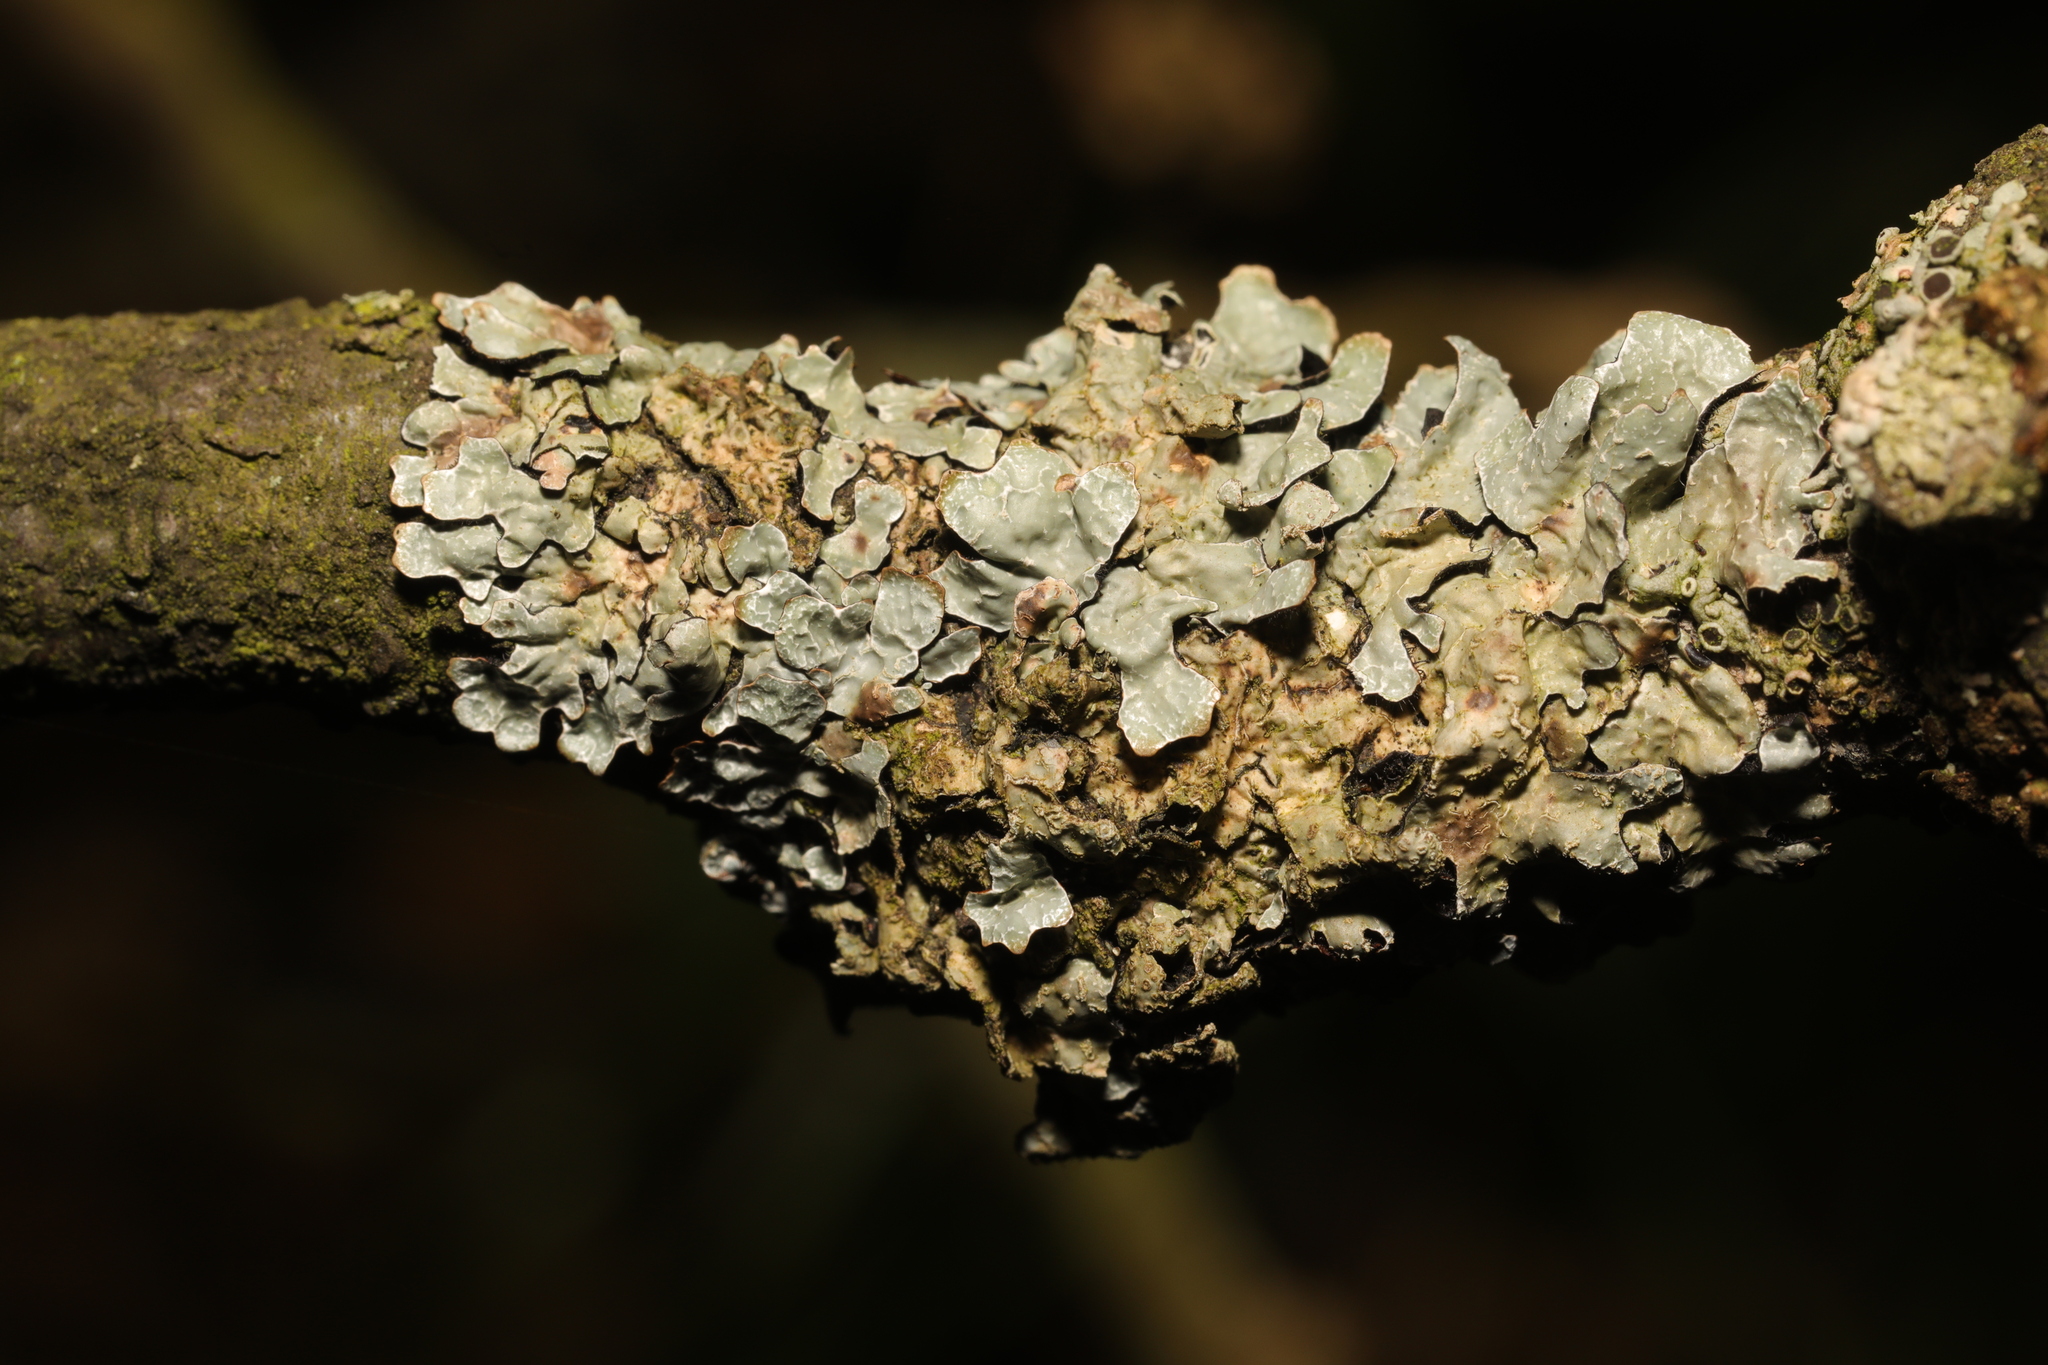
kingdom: Fungi
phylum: Ascomycota
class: Lecanoromycetes
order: Lecanorales
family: Parmeliaceae
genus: Parmelia
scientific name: Parmelia sulcata
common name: Netted shield lichen
